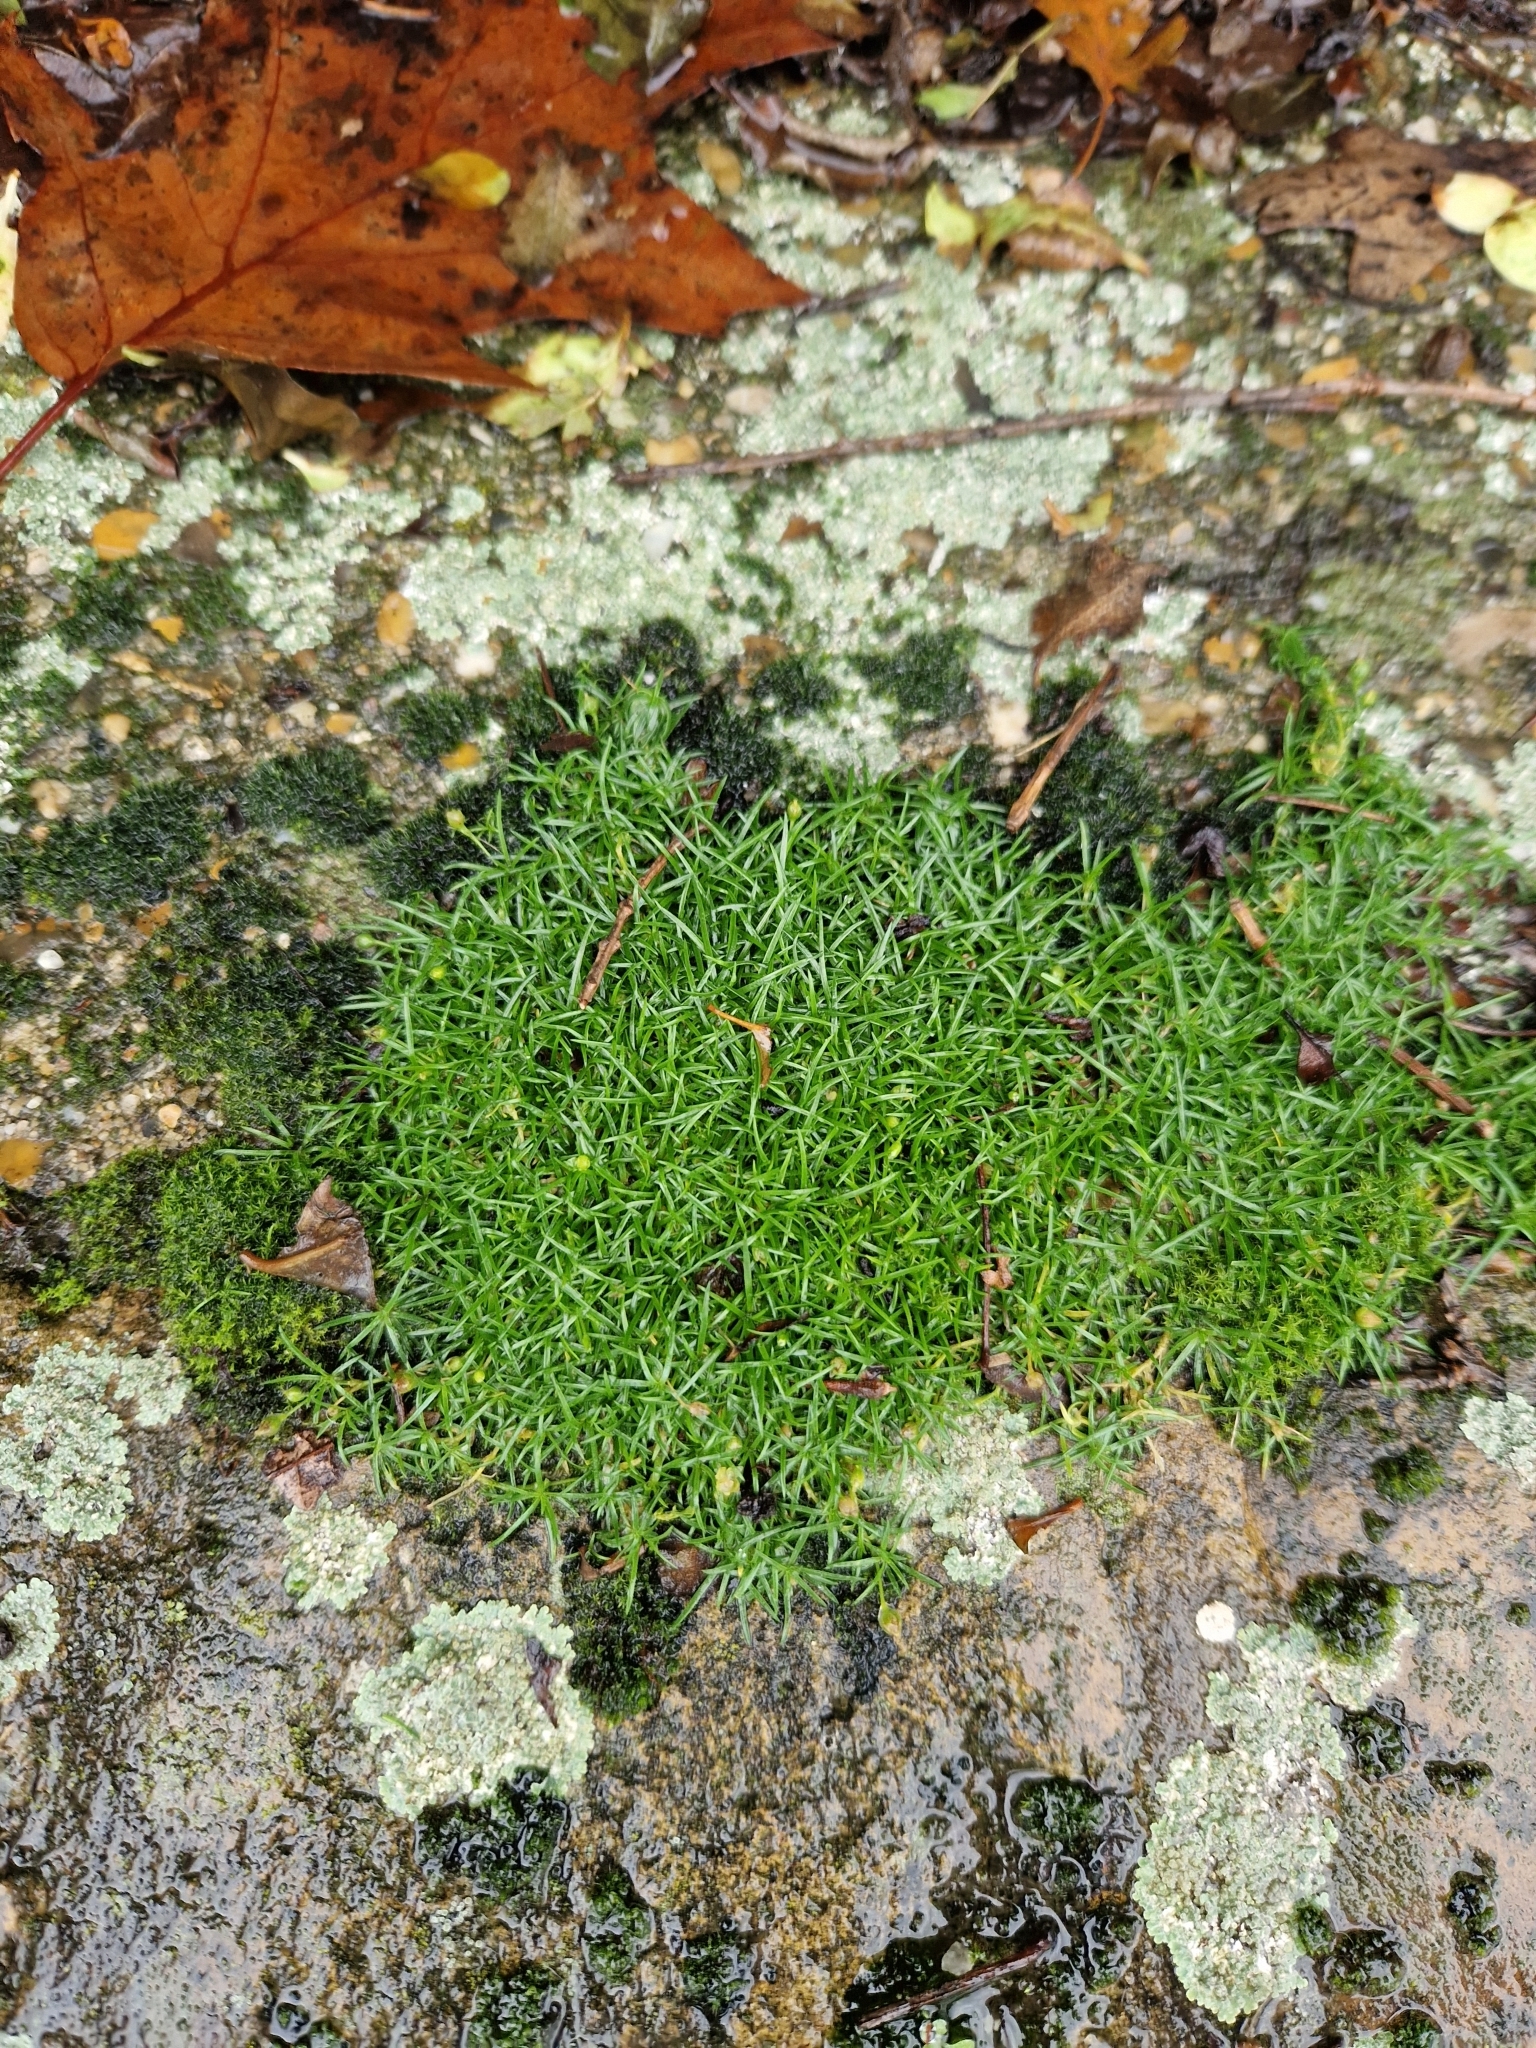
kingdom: Plantae
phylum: Tracheophyta
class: Magnoliopsida
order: Caryophyllales
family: Caryophyllaceae
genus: Sagina
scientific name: Sagina procumbens
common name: Procumbent pearlwort
